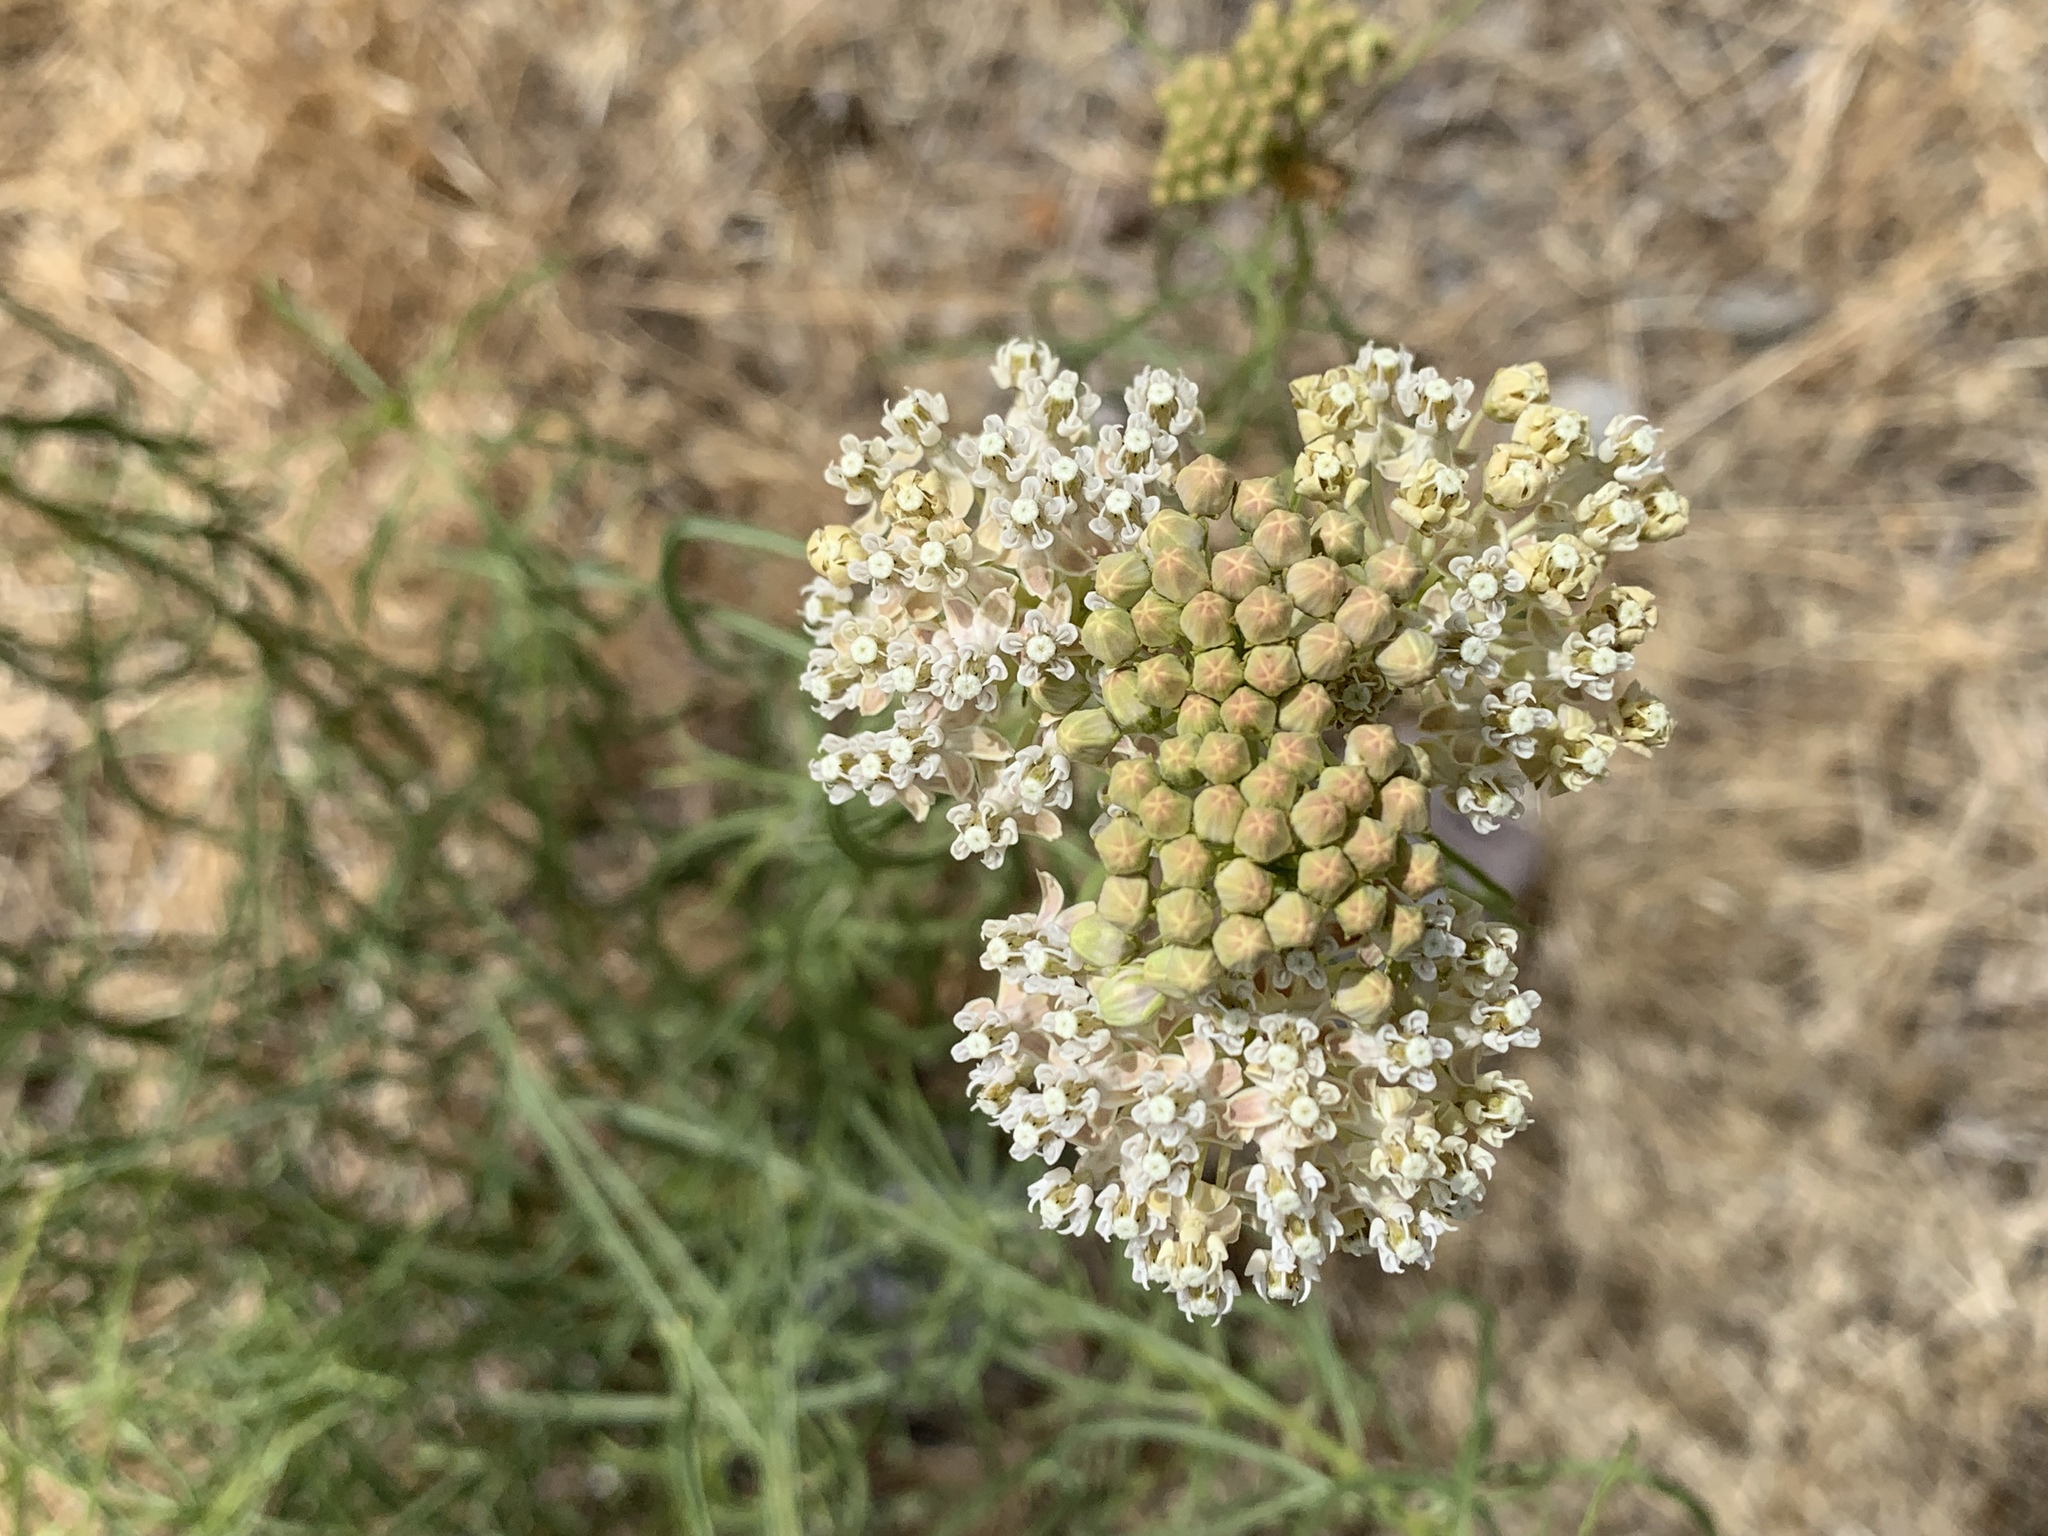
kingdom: Plantae
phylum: Tracheophyta
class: Magnoliopsida
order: Gentianales
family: Apocynaceae
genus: Asclepias
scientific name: Asclepias fascicularis
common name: Mexican milkweed
